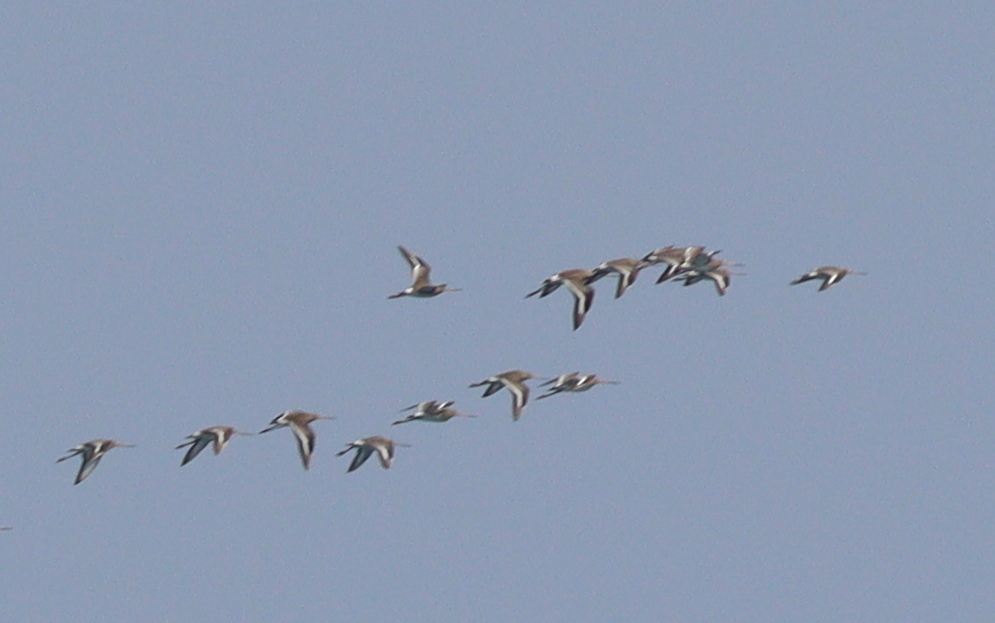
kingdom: Animalia
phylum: Chordata
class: Aves
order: Charadriiformes
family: Scolopacidae
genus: Limosa
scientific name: Limosa limosa
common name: Black-tailed godwit
